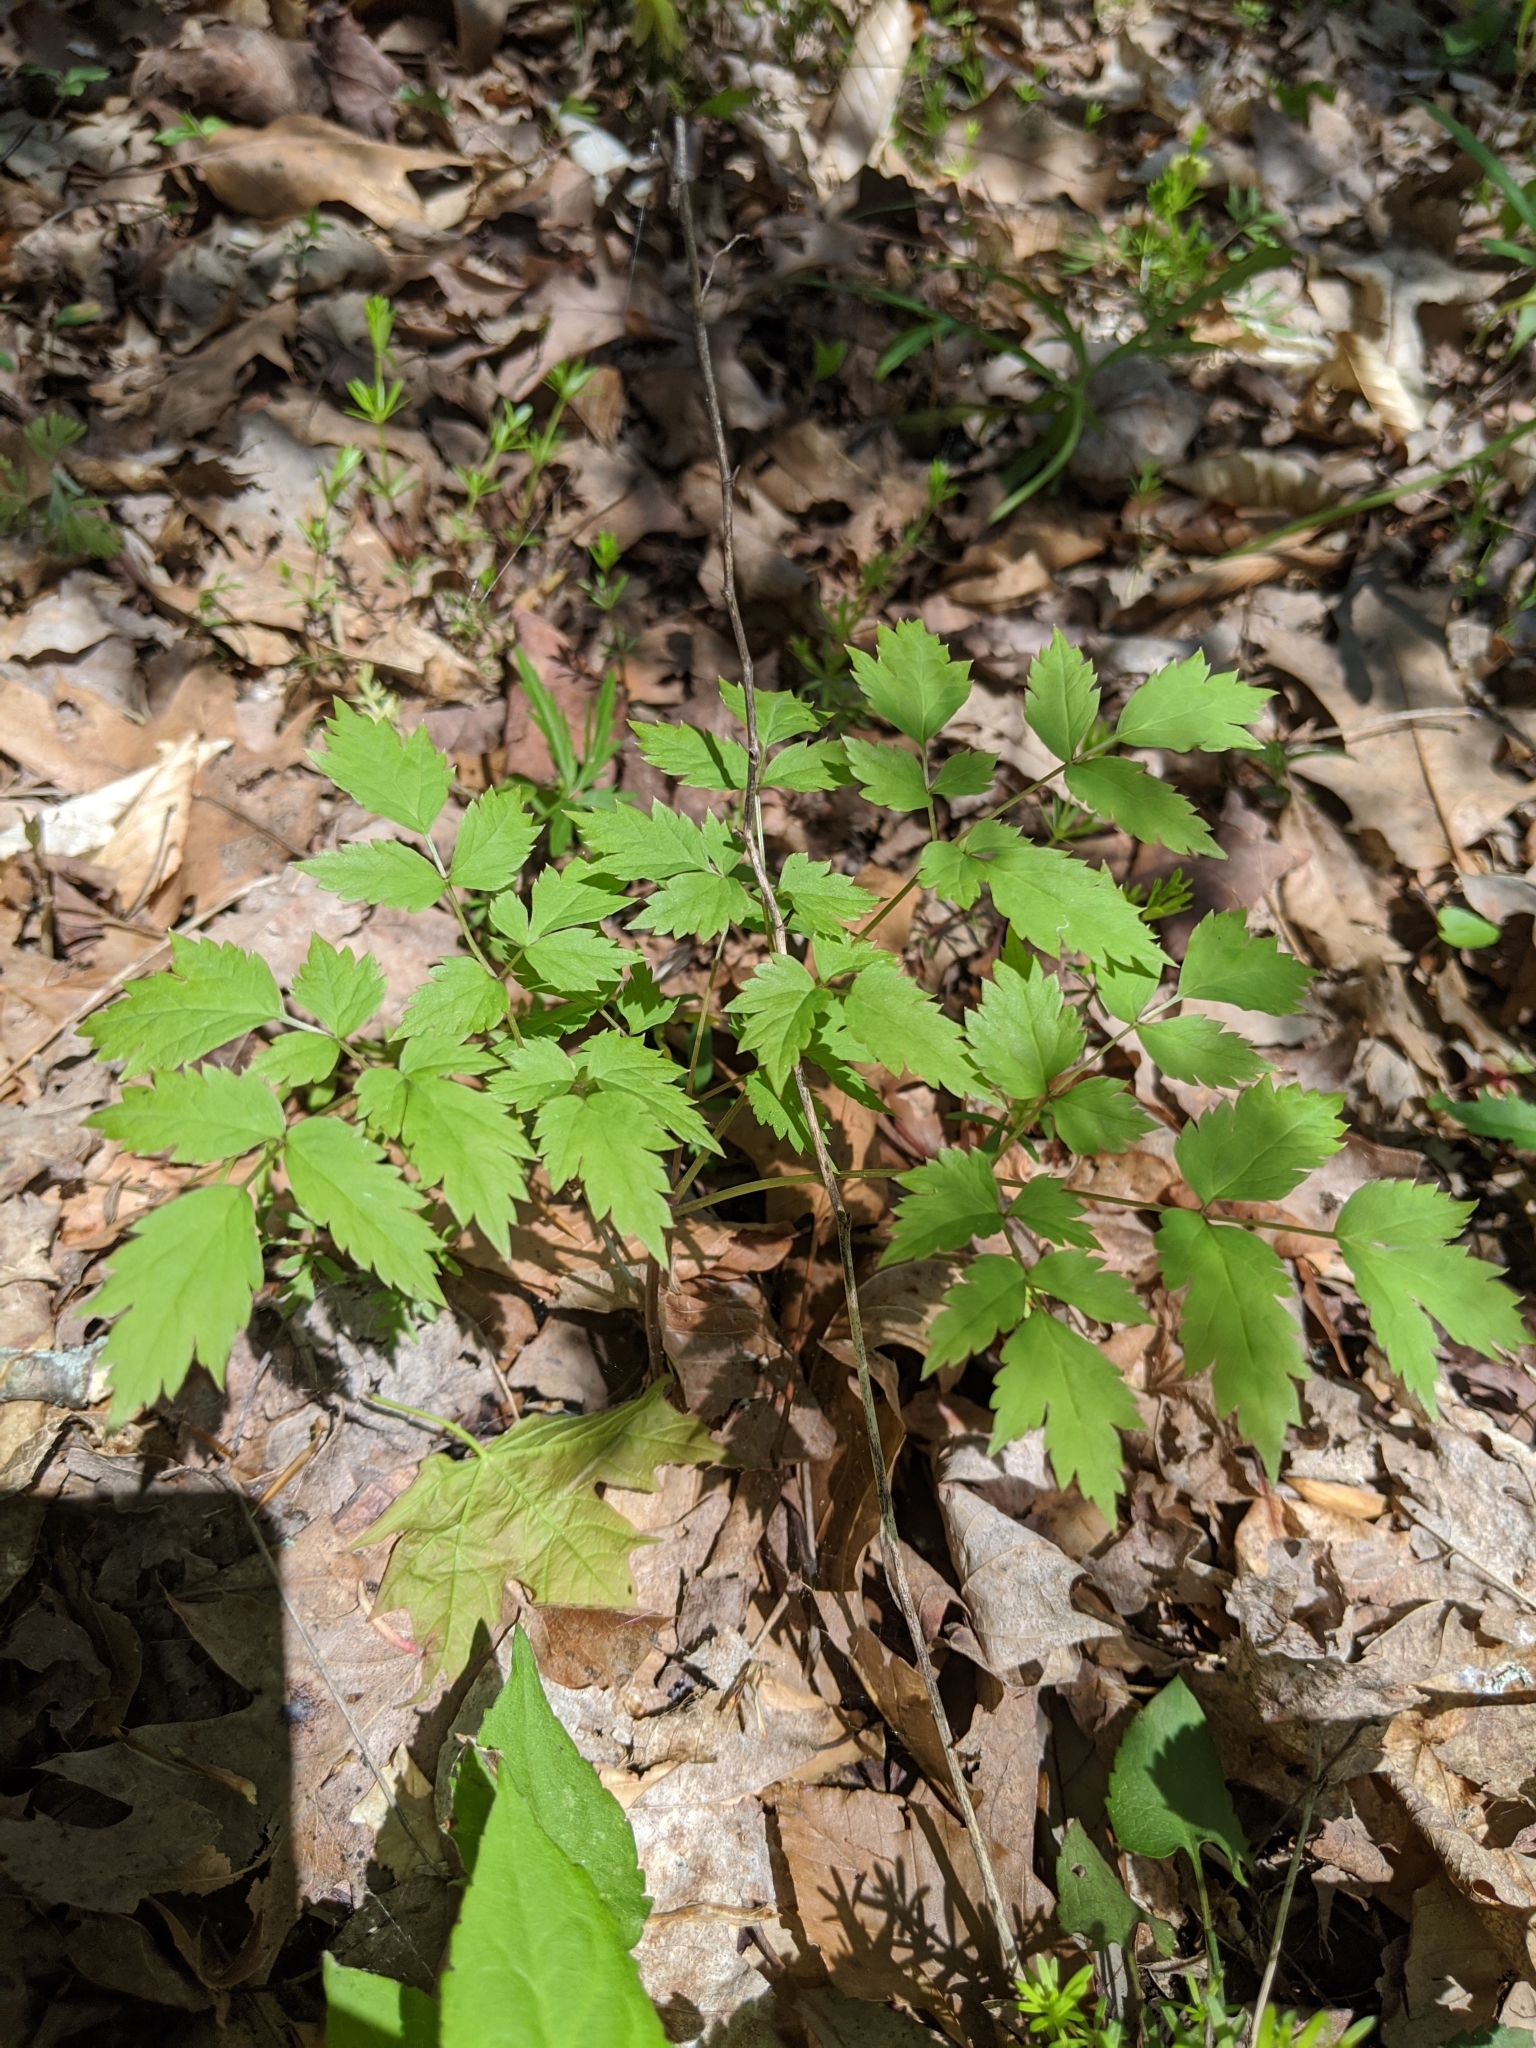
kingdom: Plantae
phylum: Tracheophyta
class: Magnoliopsida
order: Ranunculales
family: Ranunculaceae
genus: Actaea
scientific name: Actaea pachypoda
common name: Doll's-eyes
